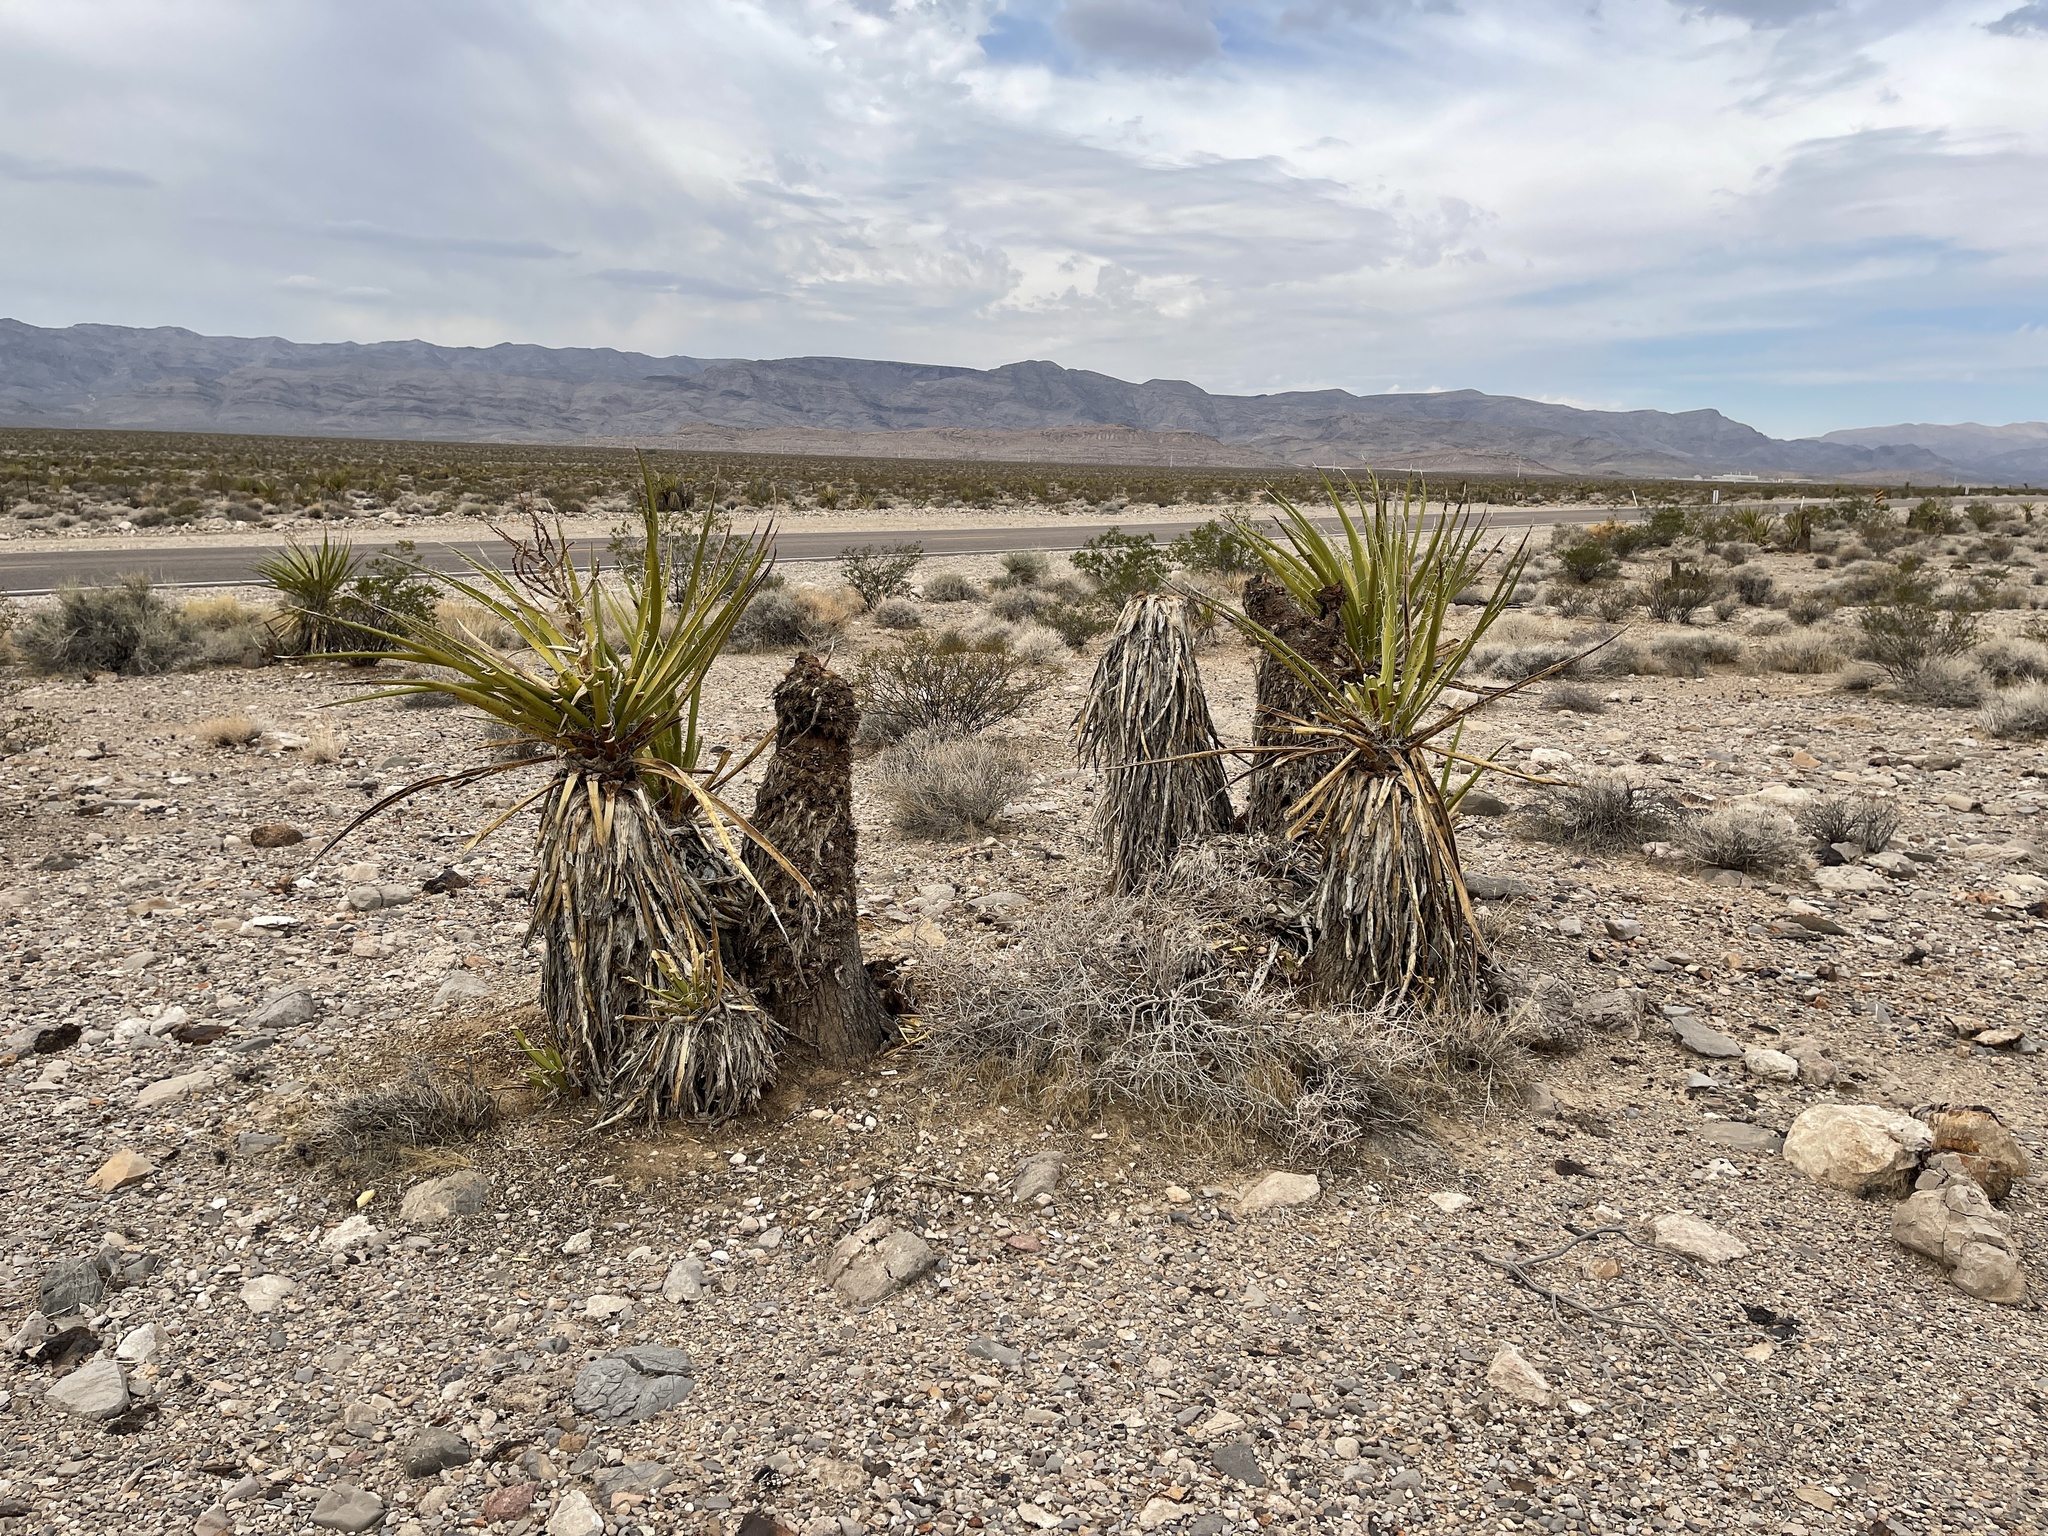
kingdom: Plantae
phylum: Tracheophyta
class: Liliopsida
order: Asparagales
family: Asparagaceae
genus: Yucca
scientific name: Yucca schidigera
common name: Mojave yucca
